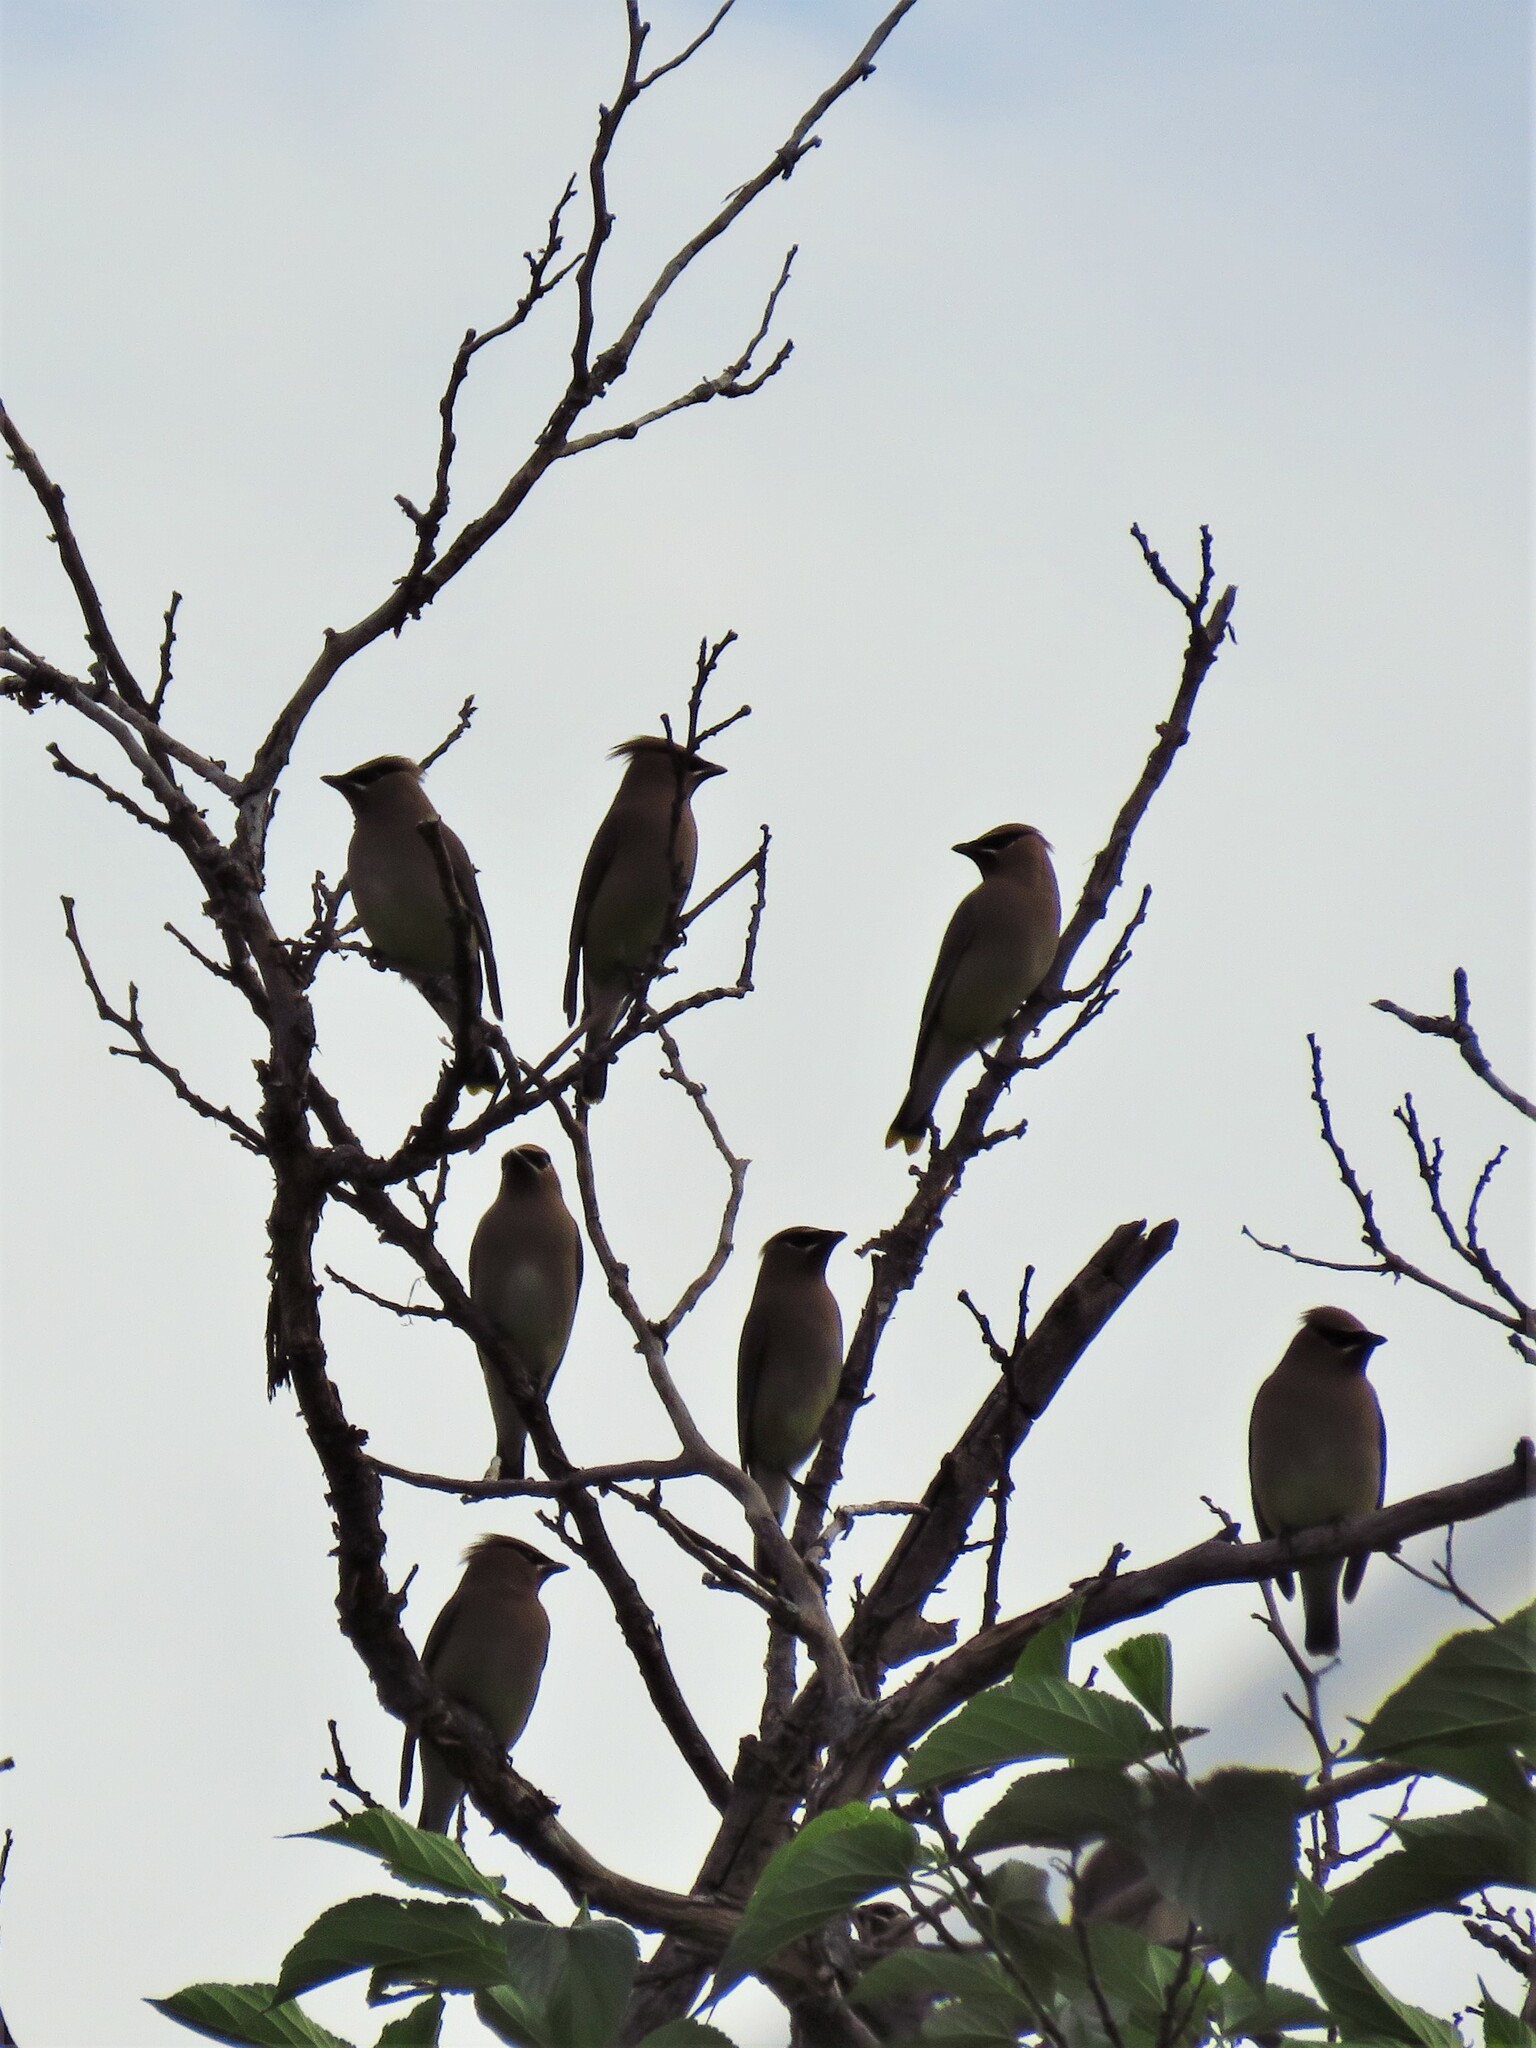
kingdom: Animalia
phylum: Chordata
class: Aves
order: Passeriformes
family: Bombycillidae
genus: Bombycilla
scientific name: Bombycilla cedrorum
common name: Cedar waxwing
